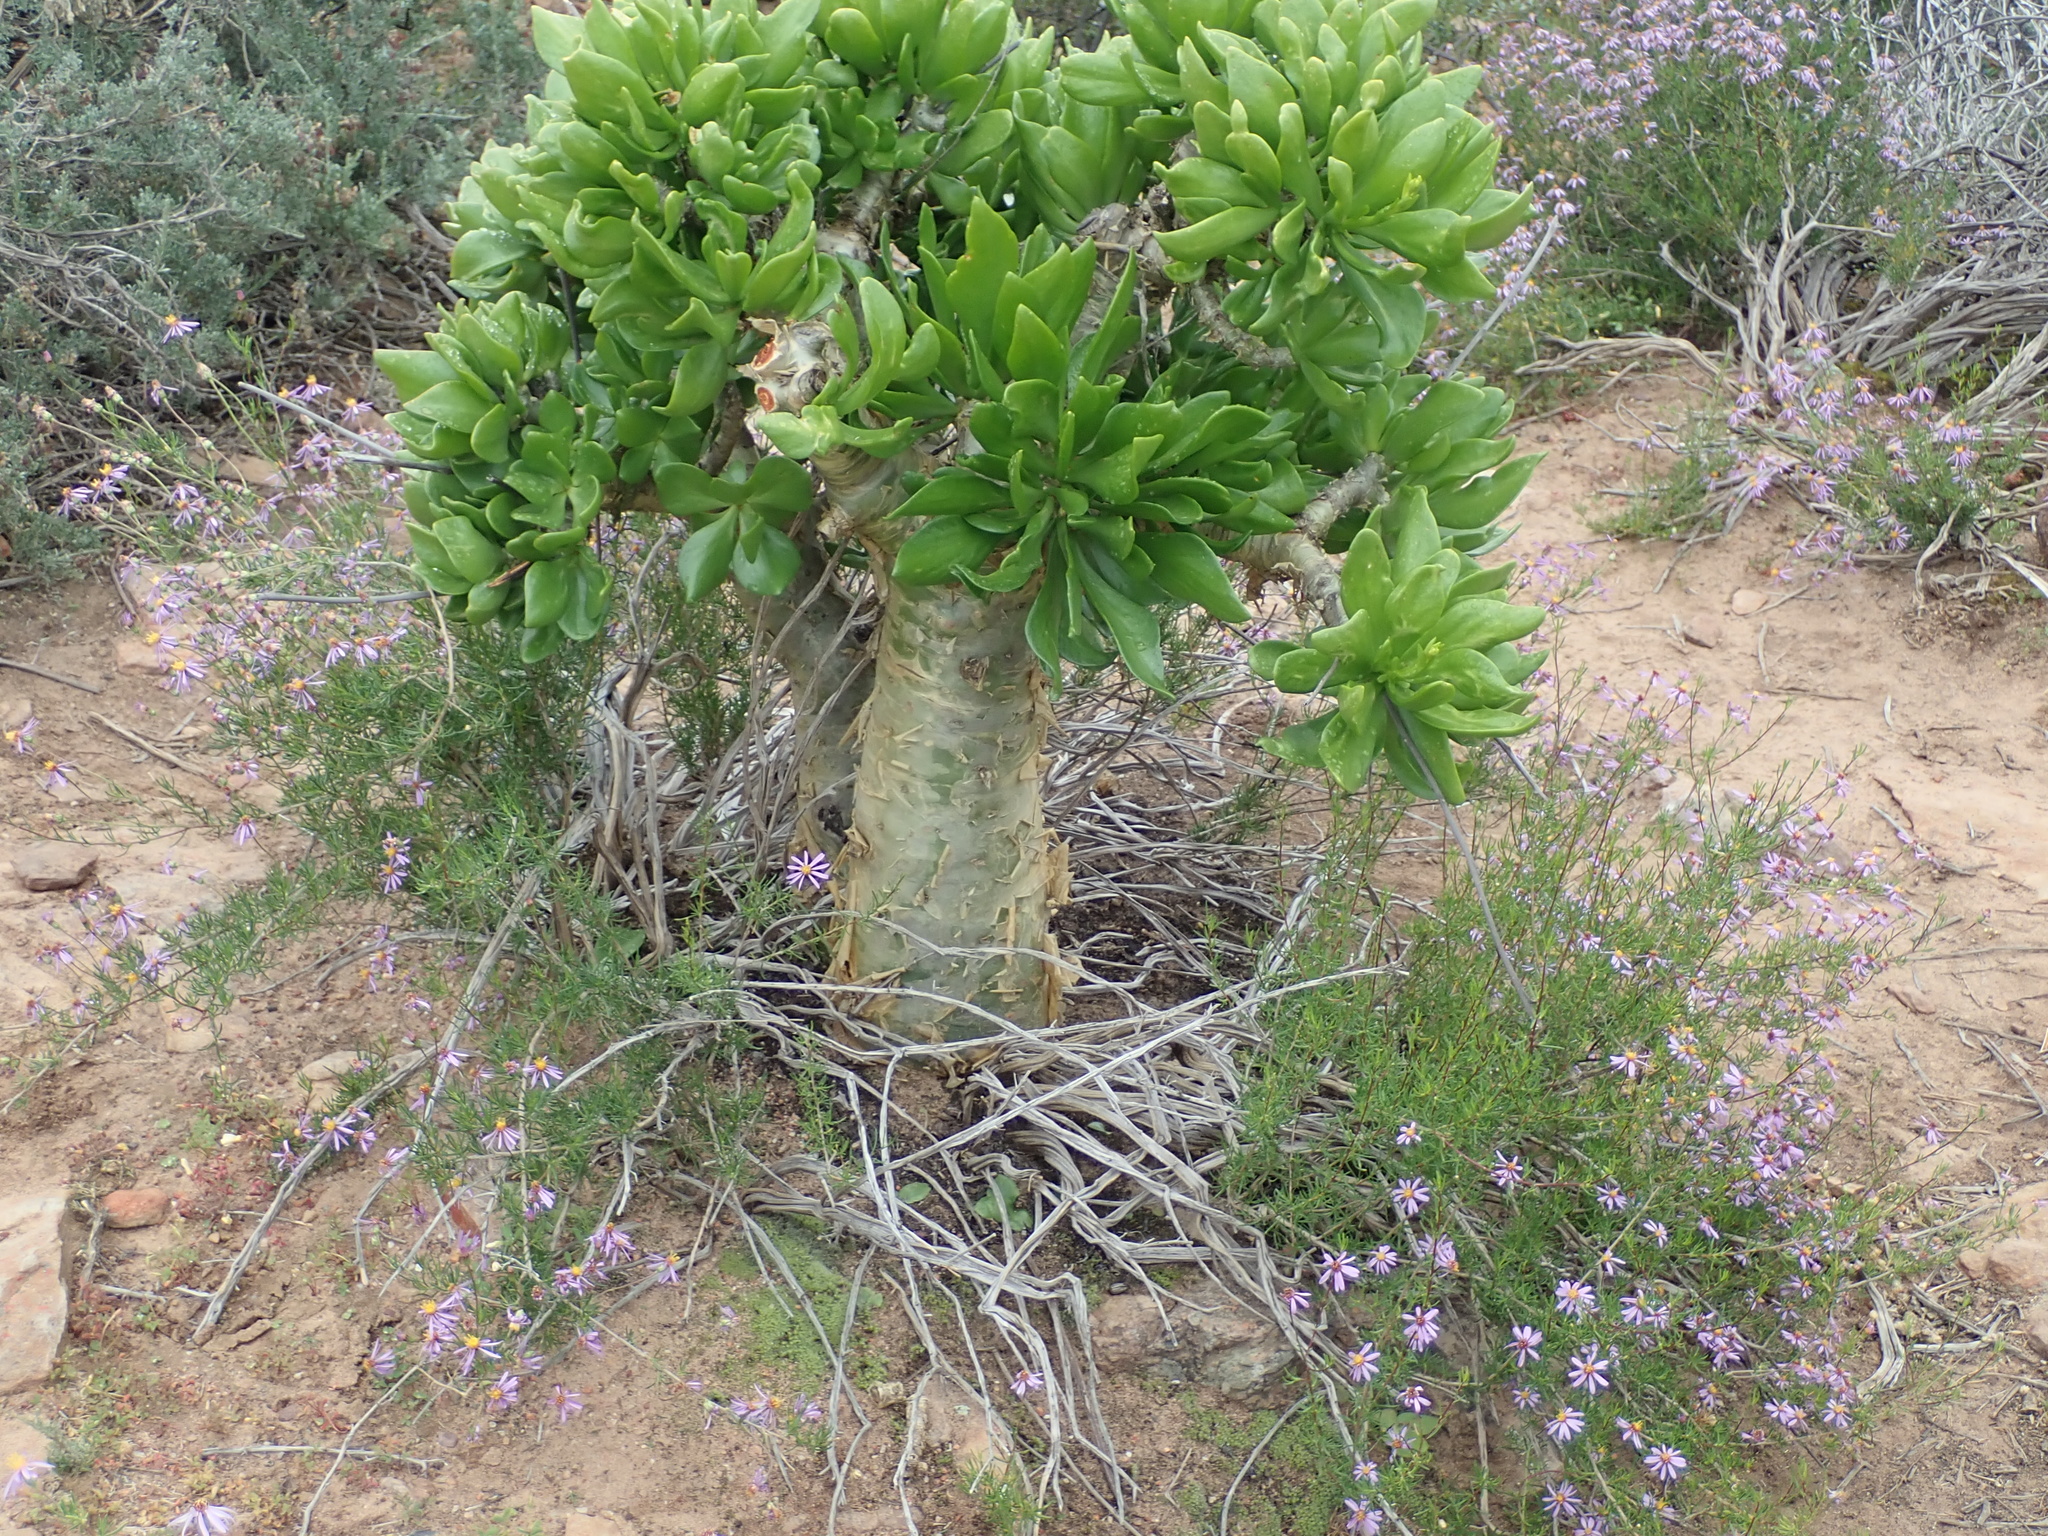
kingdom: Plantae
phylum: Tracheophyta
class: Magnoliopsida
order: Saxifragales
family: Crassulaceae
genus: Tylecodon
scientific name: Tylecodon paniculatus
